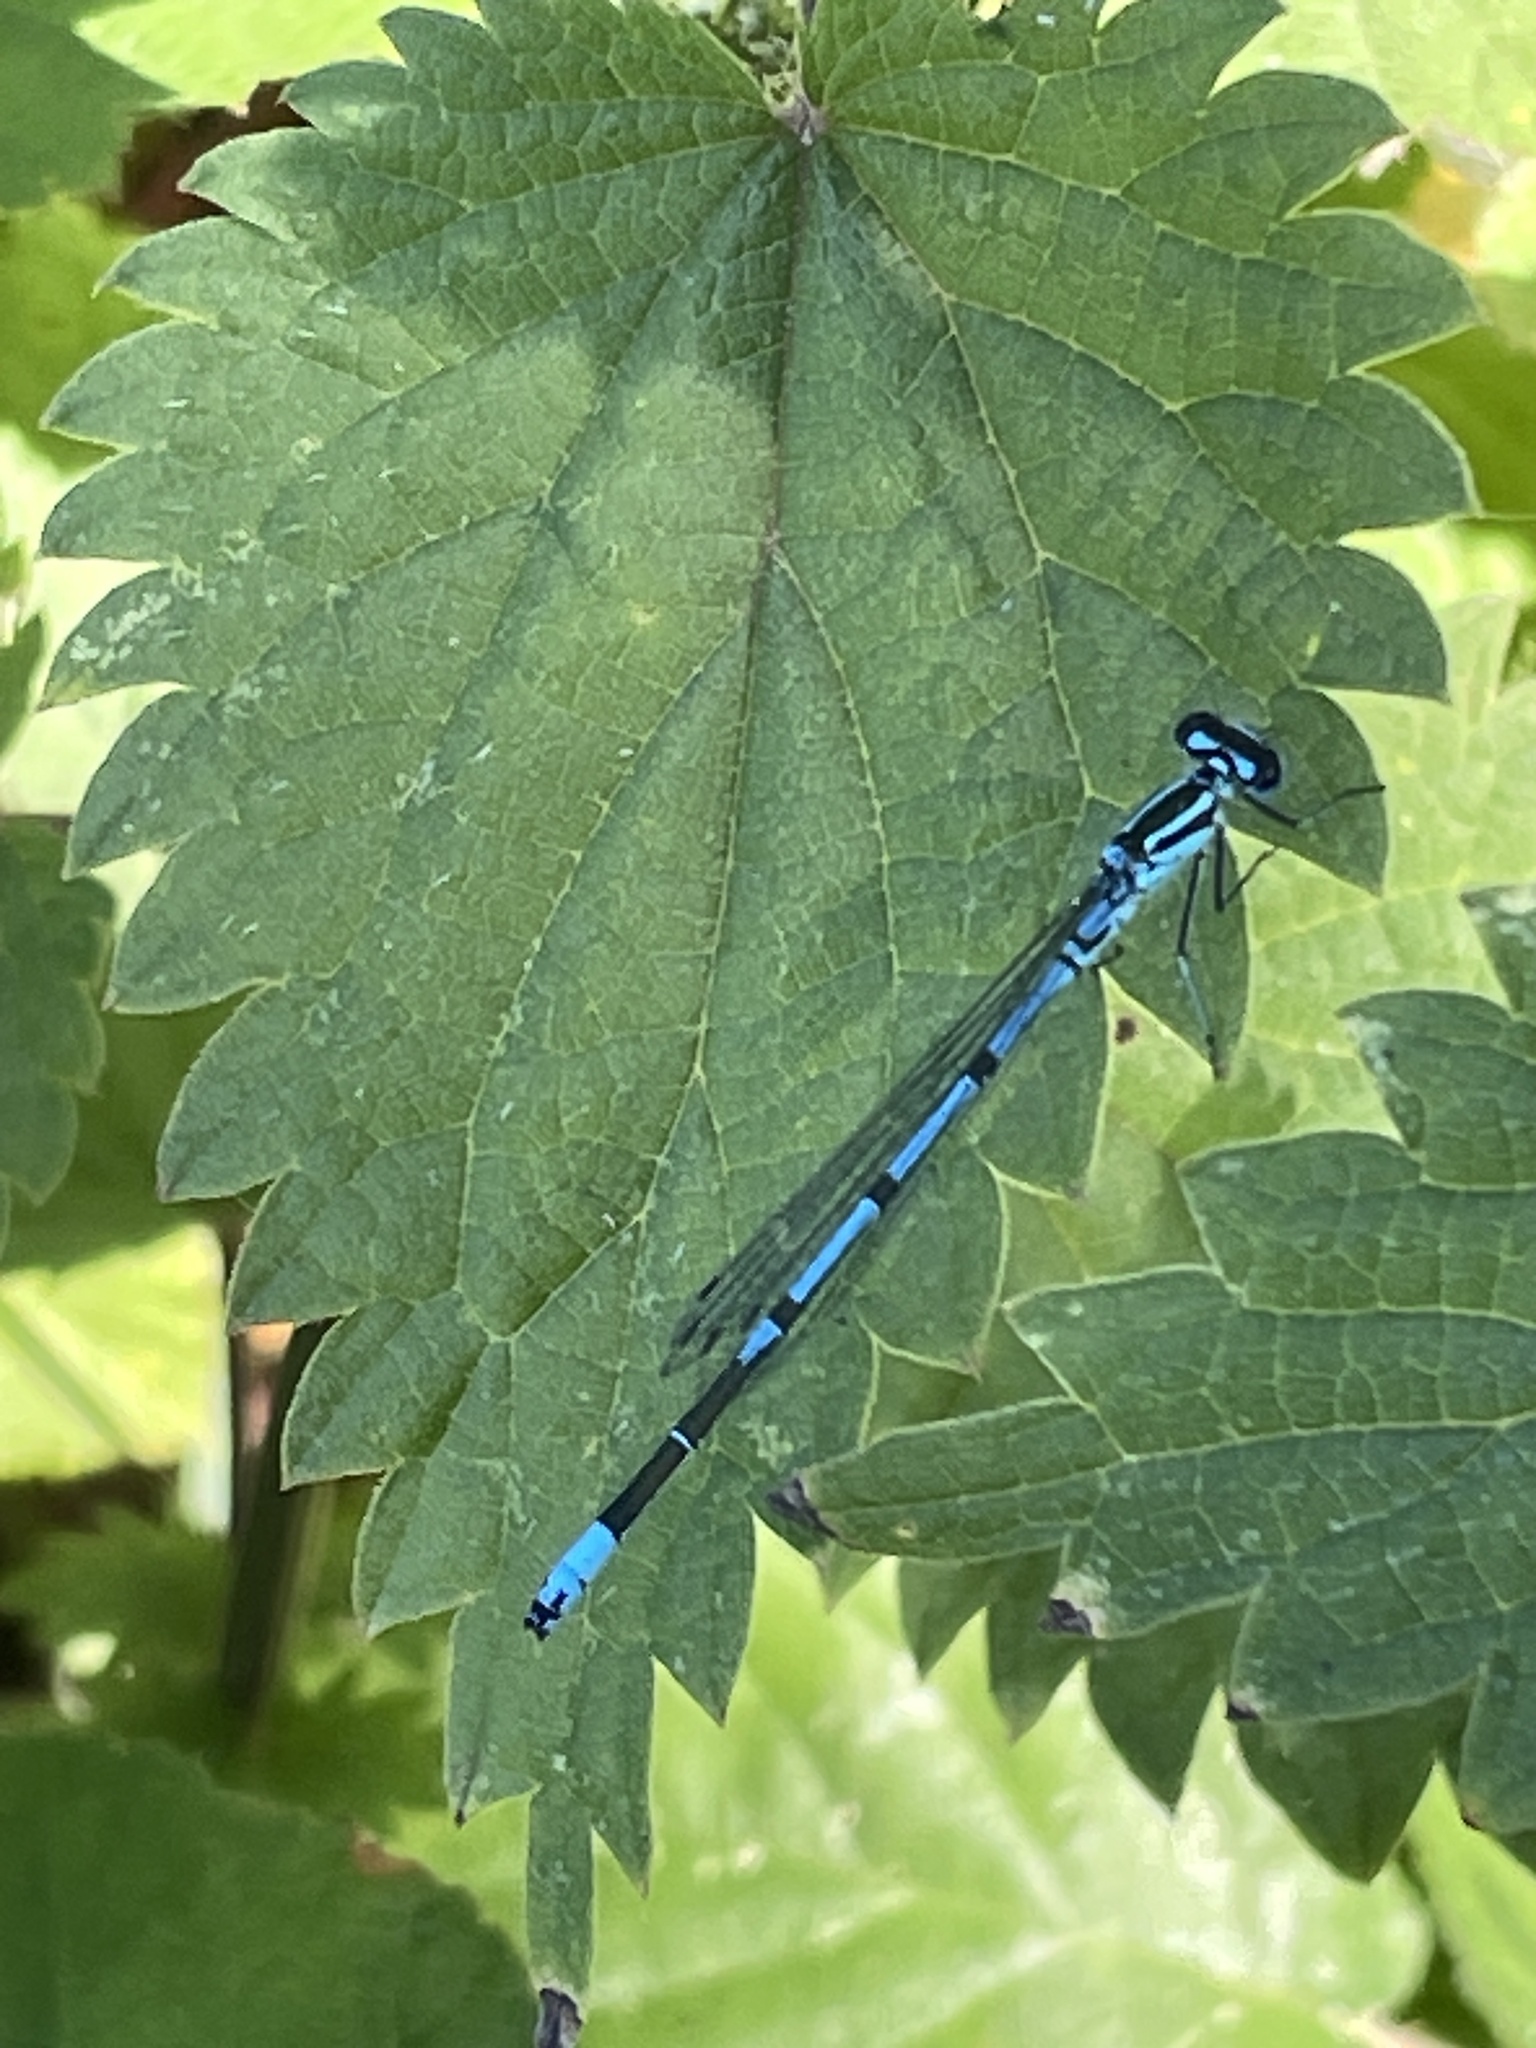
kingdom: Animalia
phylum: Arthropoda
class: Insecta
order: Odonata
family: Coenagrionidae
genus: Coenagrion
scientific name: Coenagrion puella
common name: Azure damselfly
